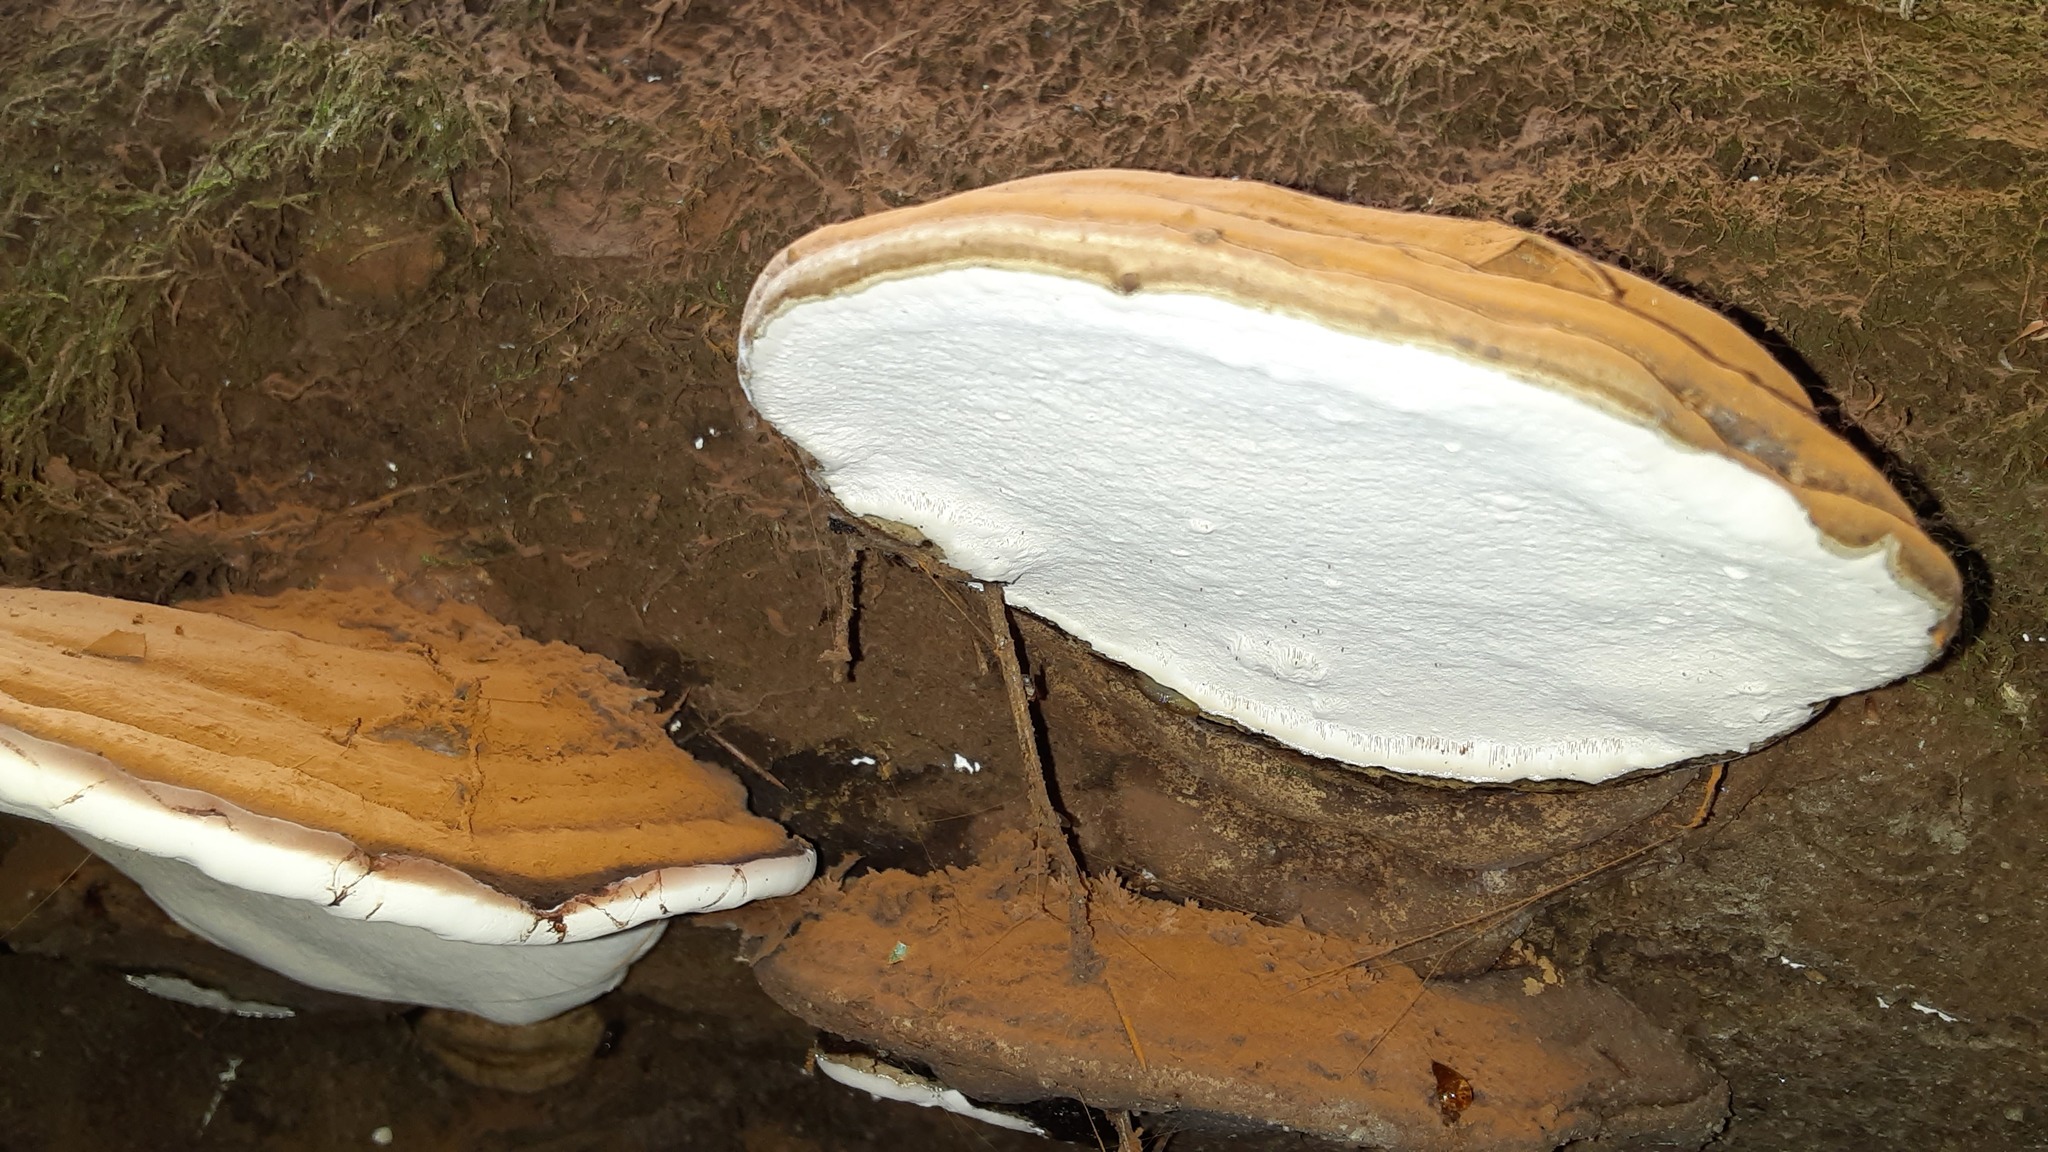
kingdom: Fungi
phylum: Basidiomycota
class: Agaricomycetes
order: Polyporales
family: Polyporaceae
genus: Ganoderma
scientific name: Ganoderma applanatum
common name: Artist's bracket
